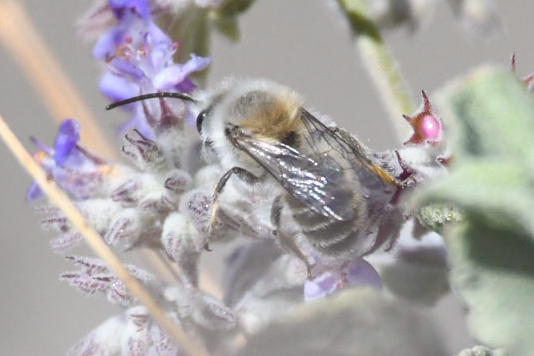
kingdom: Animalia
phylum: Arthropoda
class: Insecta
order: Hymenoptera
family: Andrenidae
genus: Ancylandrena
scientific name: Ancylandrena
